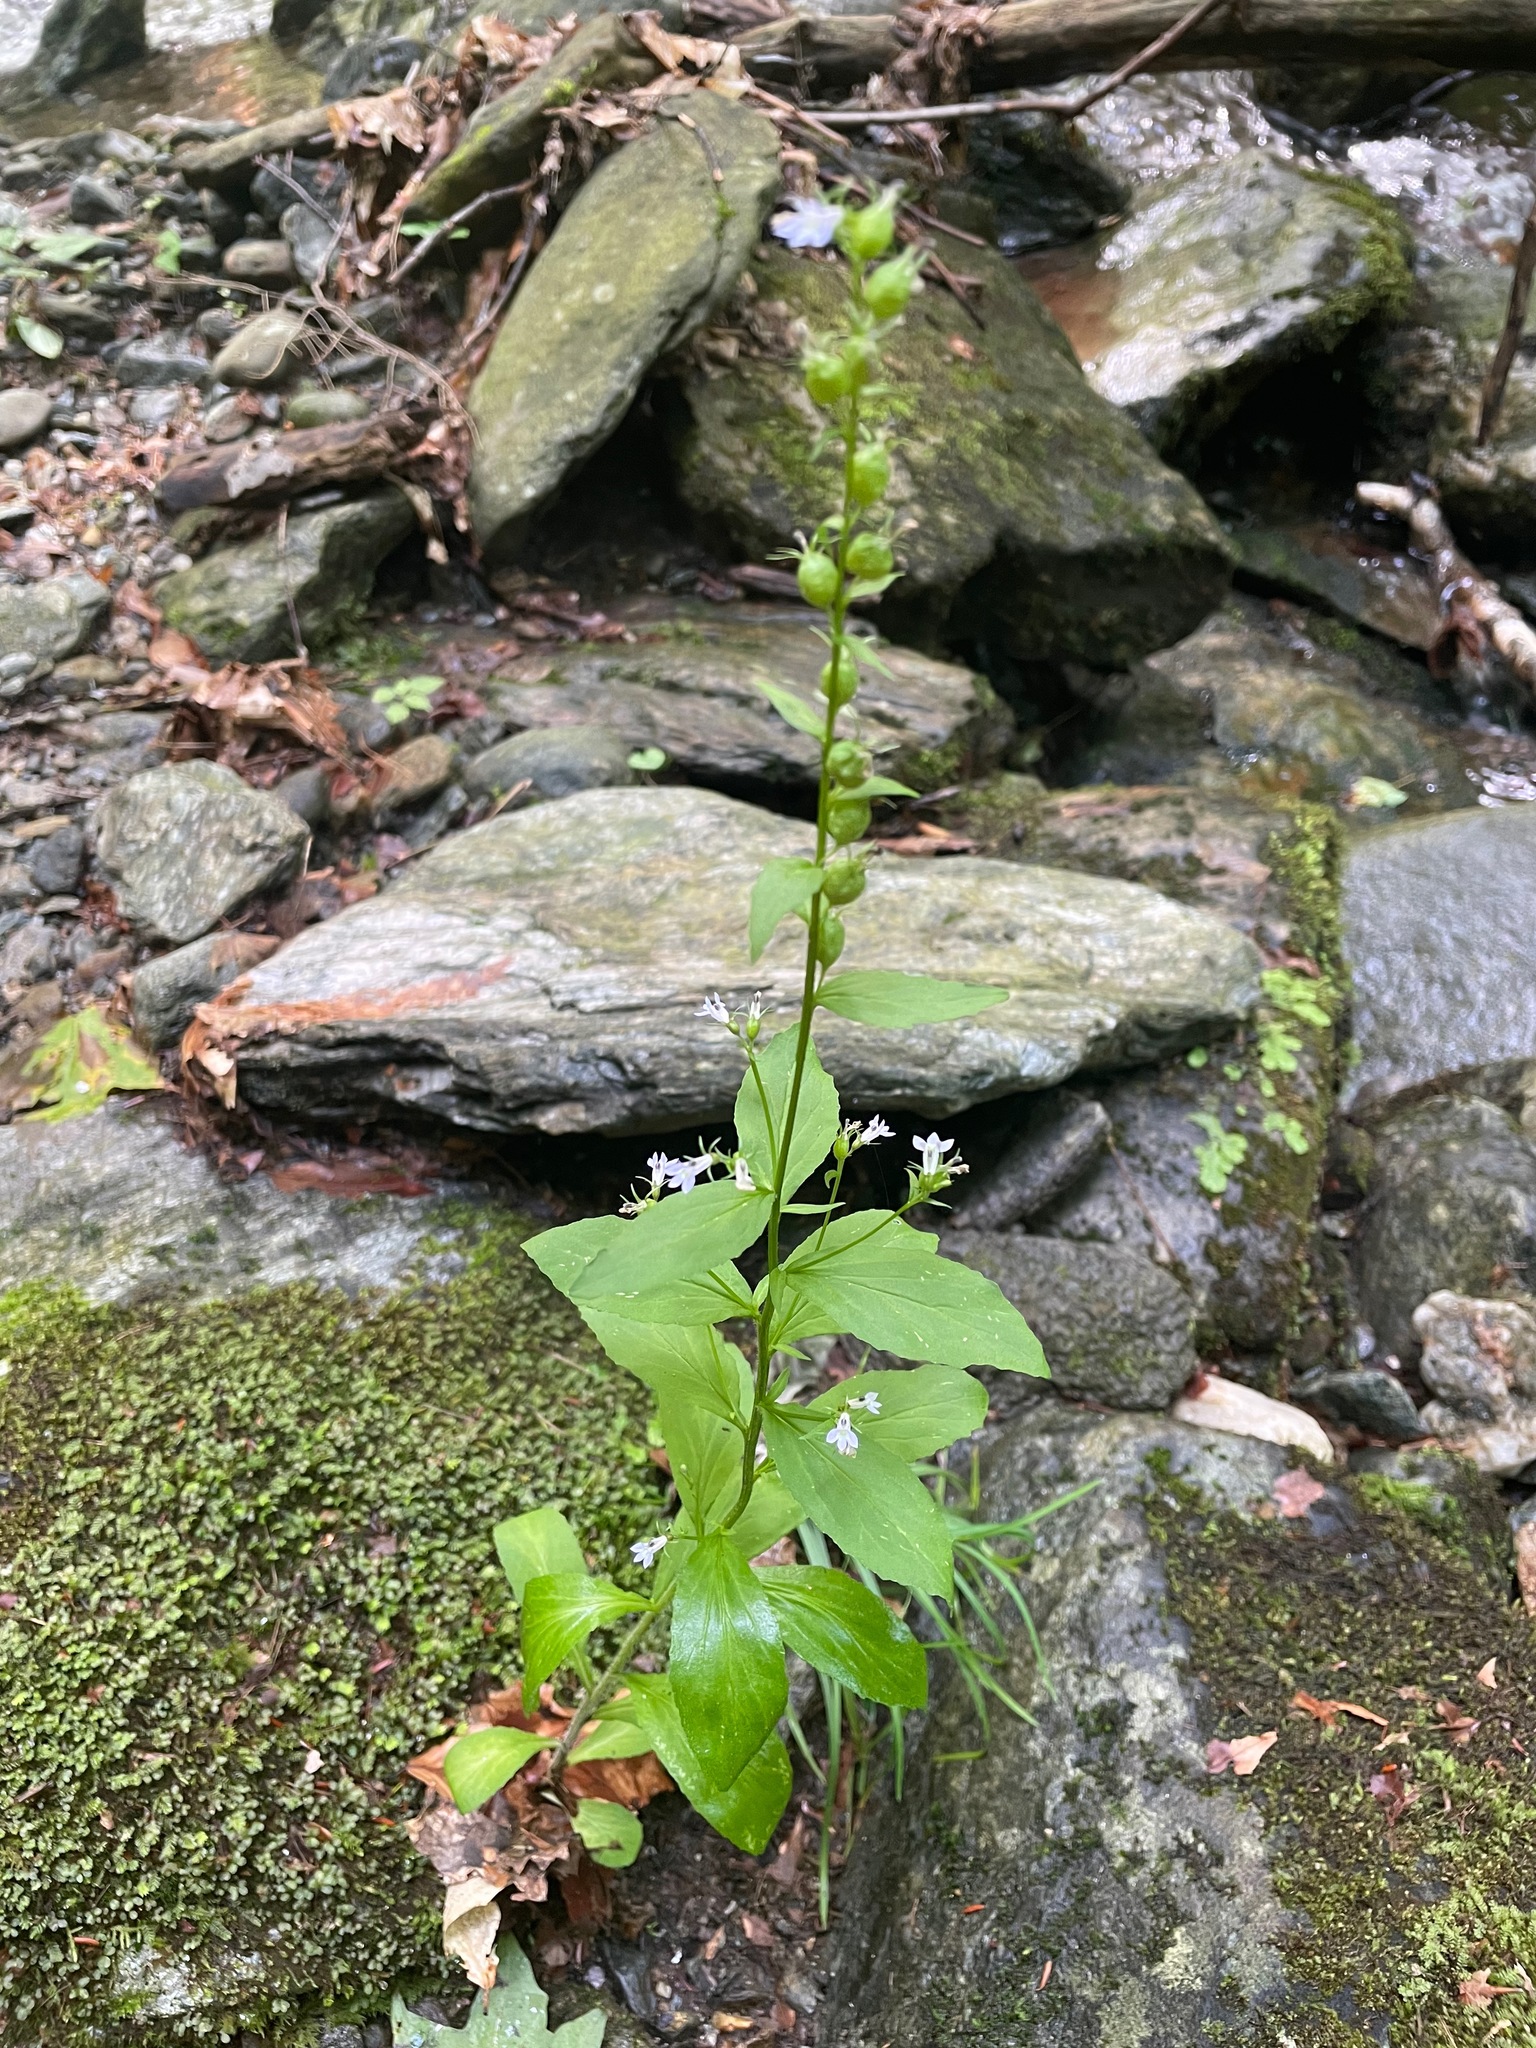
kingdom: Plantae
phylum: Tracheophyta
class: Magnoliopsida
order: Asterales
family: Campanulaceae
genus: Lobelia
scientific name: Lobelia inflata
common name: Indian tobacco
